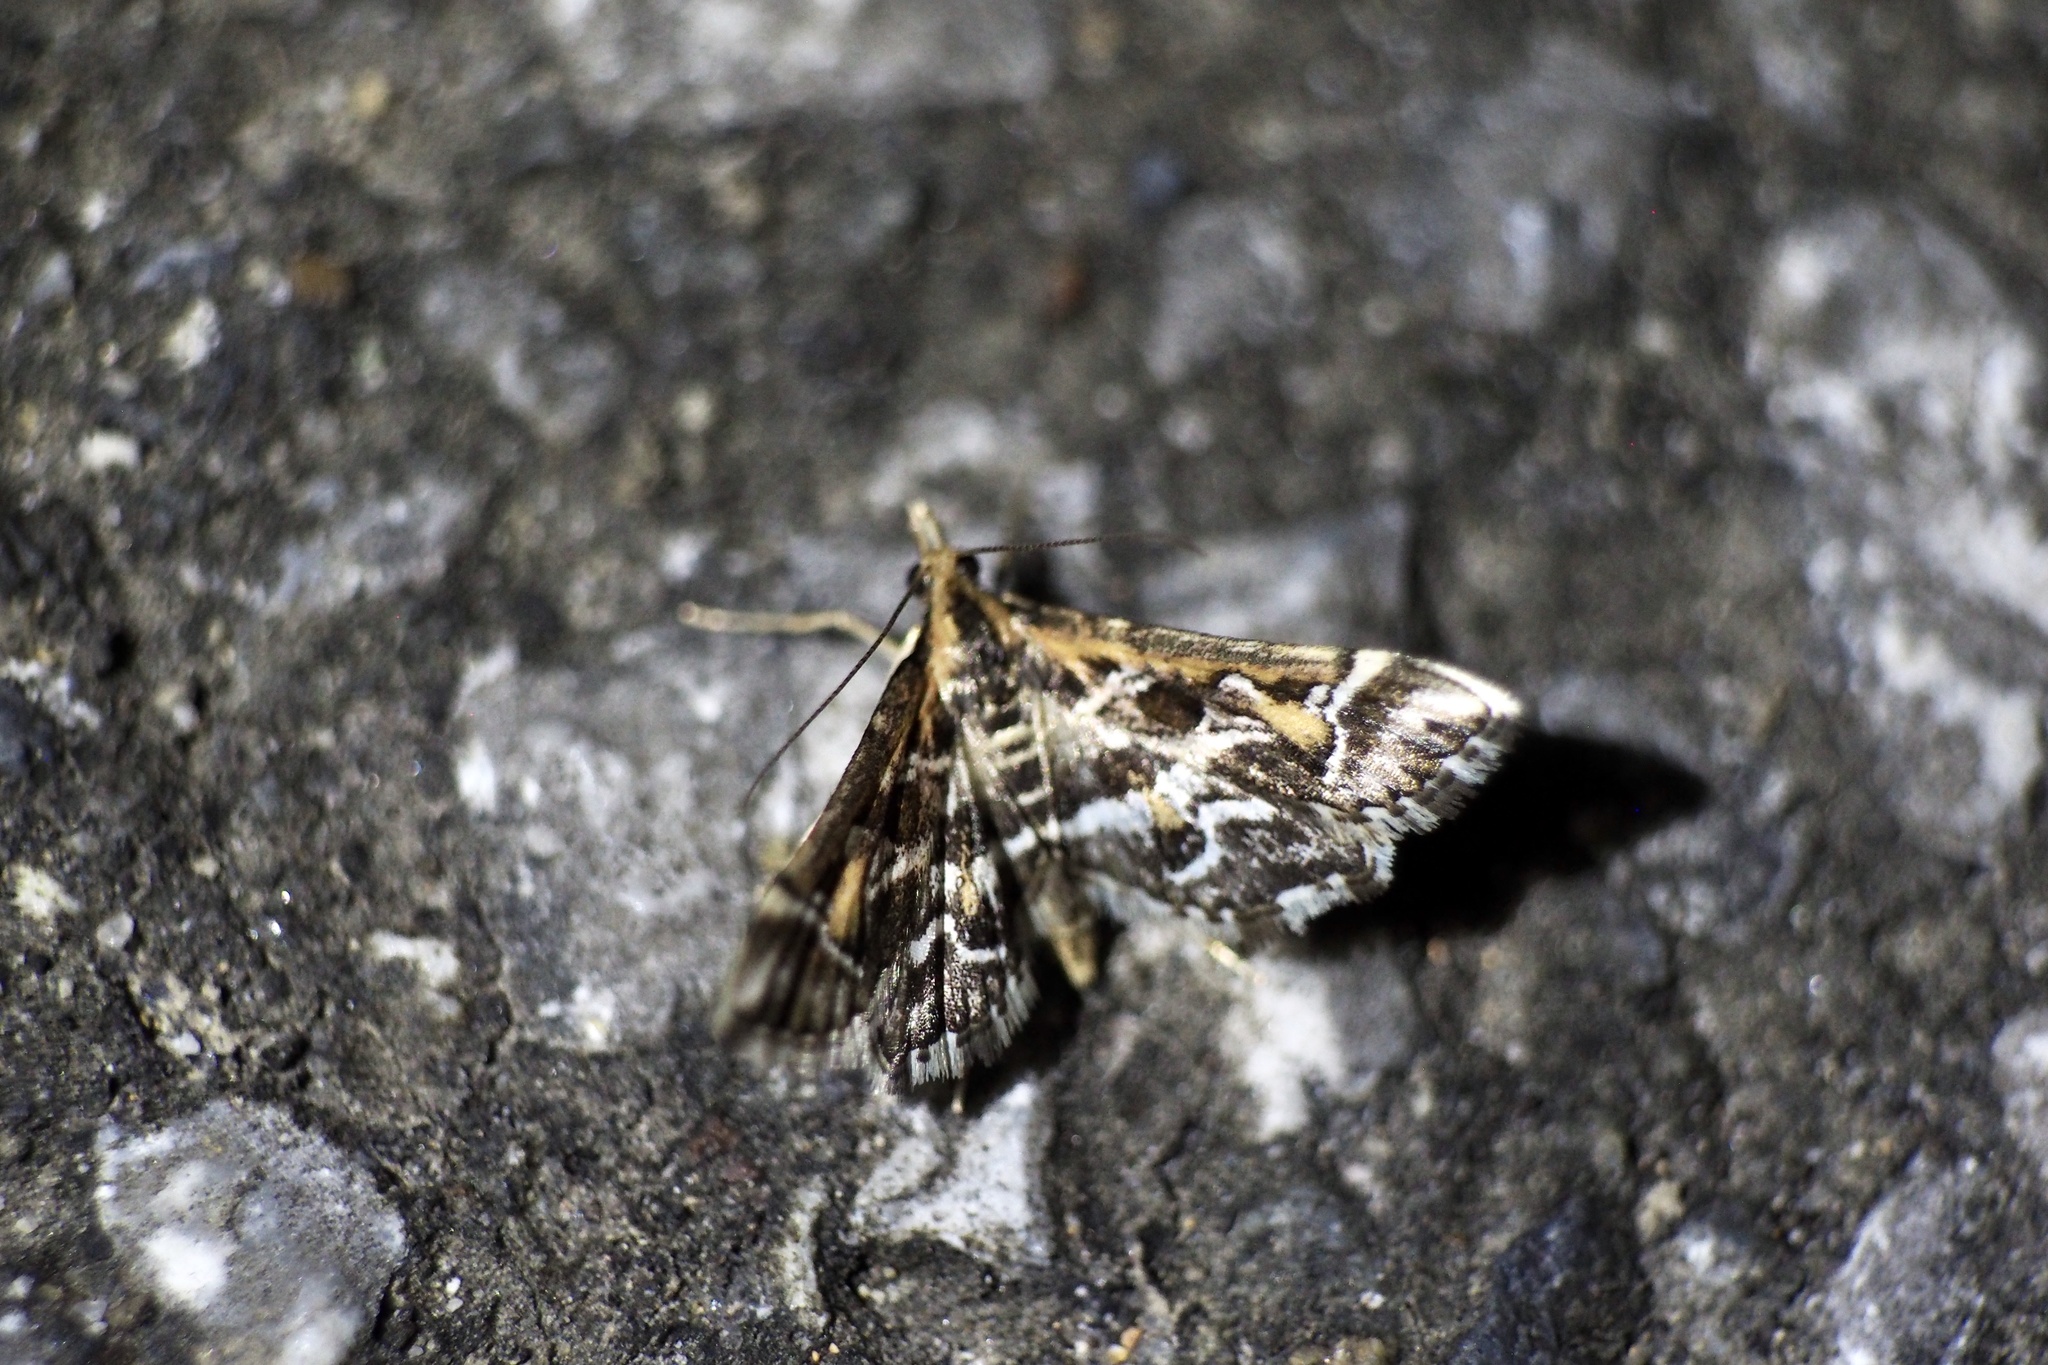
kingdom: Animalia
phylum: Arthropoda
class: Insecta
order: Lepidoptera
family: Crambidae
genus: Diasemia
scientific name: Diasemia reticularis
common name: Lettered china-mark
